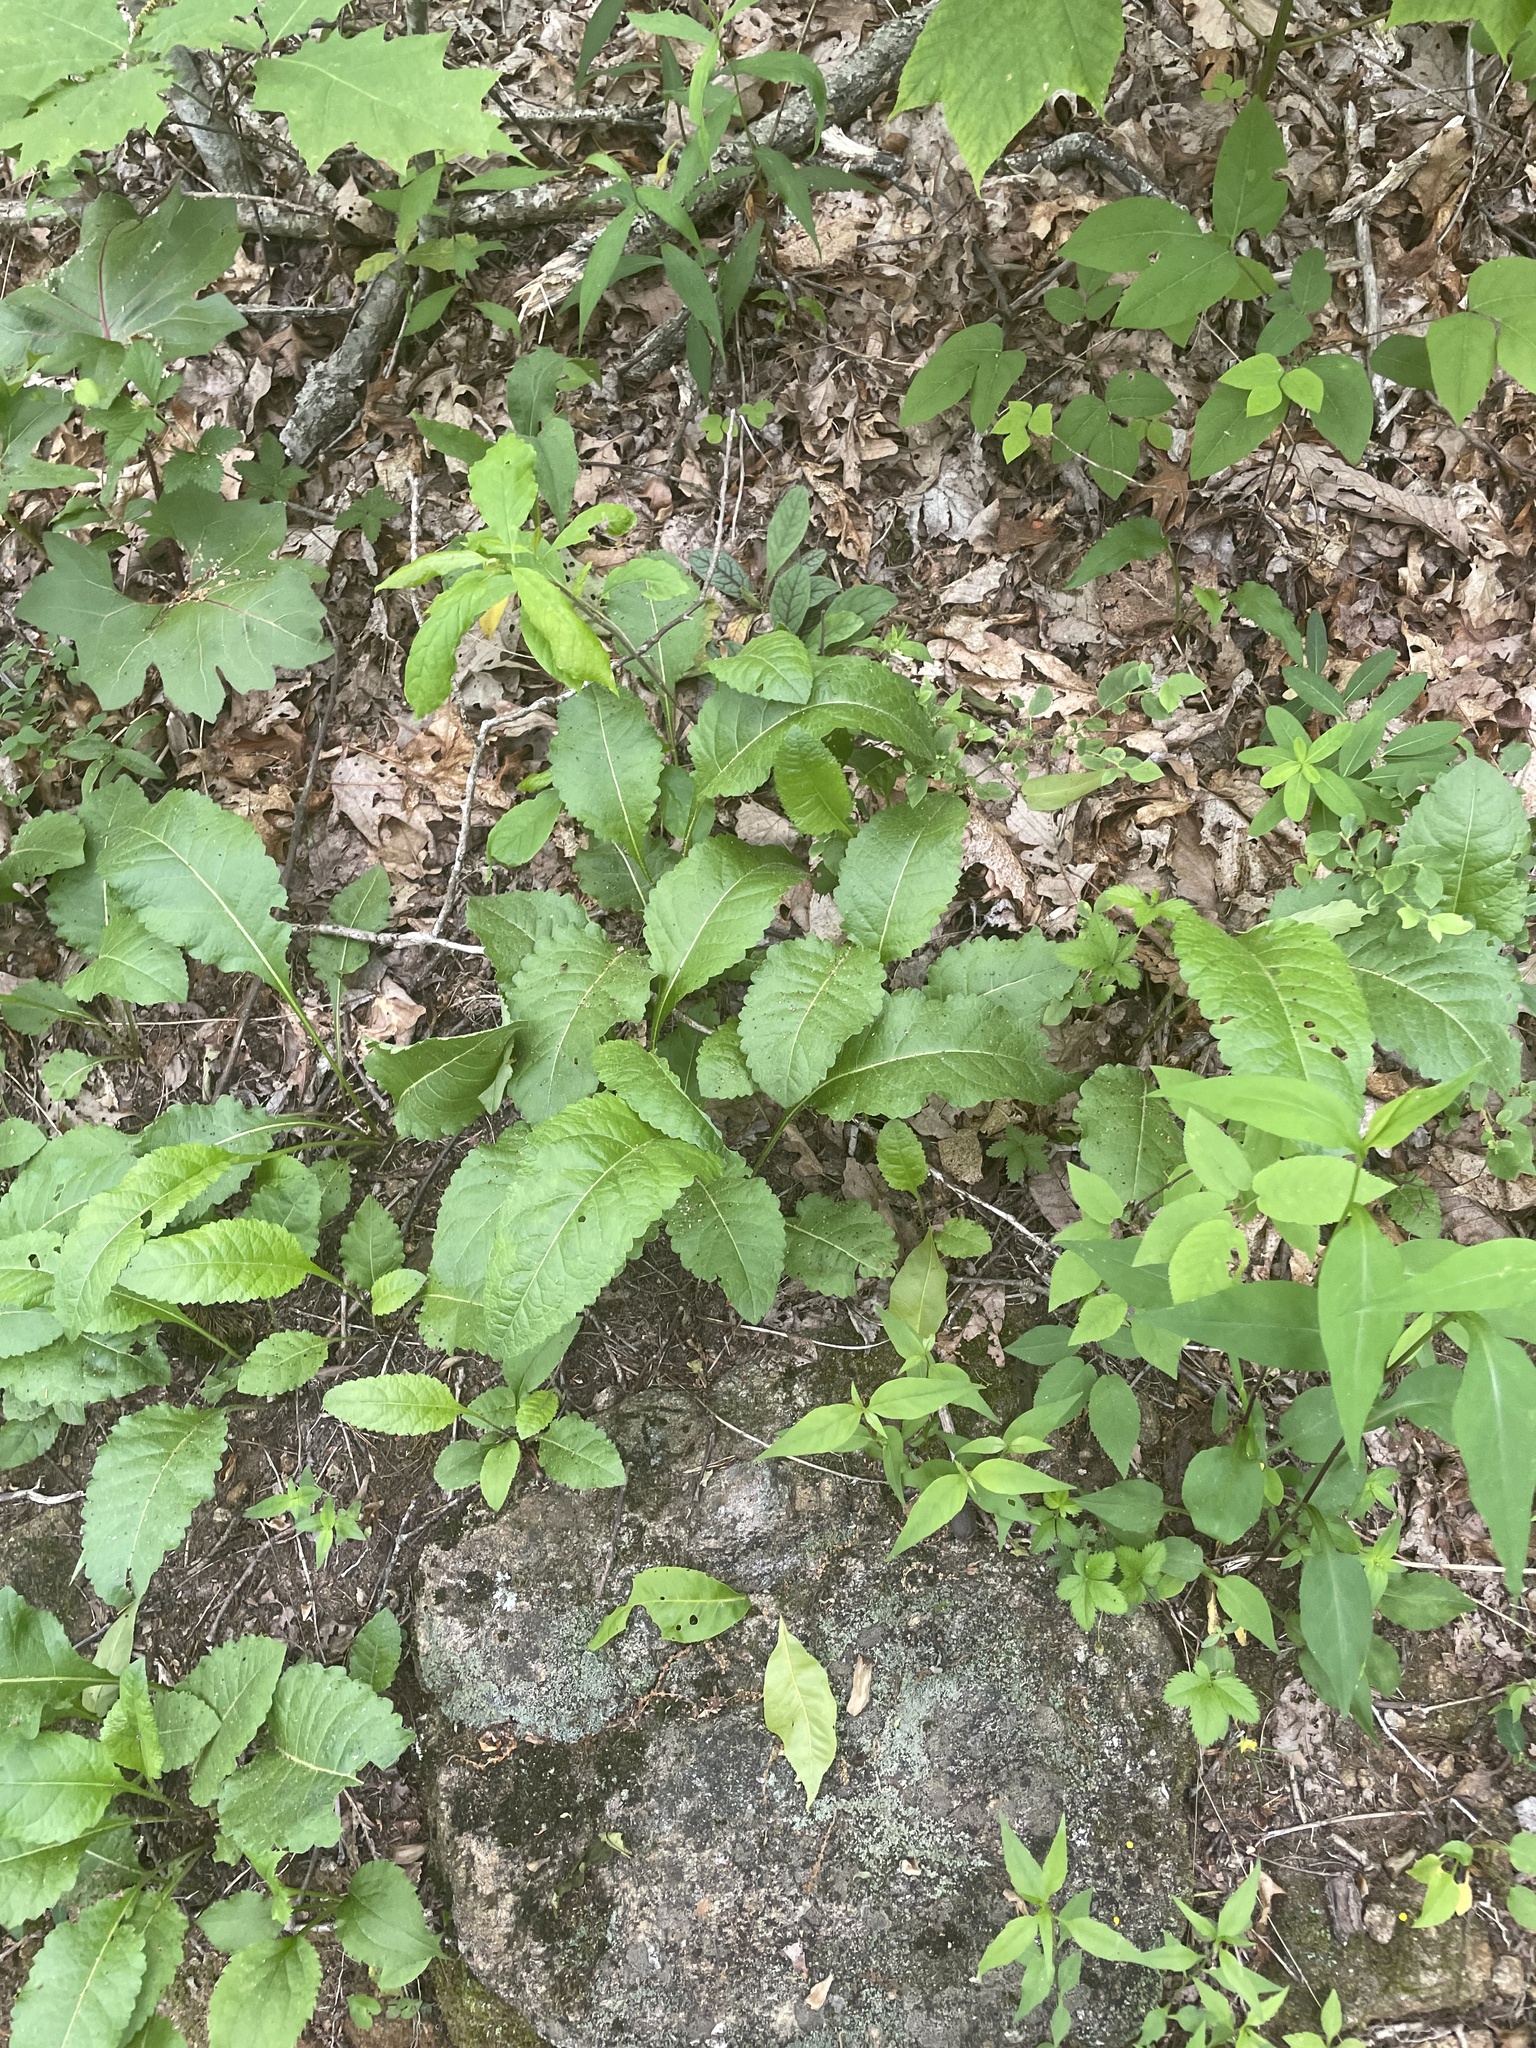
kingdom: Plantae
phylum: Tracheophyta
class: Magnoliopsida
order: Asterales
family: Asteraceae
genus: Parthenium
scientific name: Parthenium integrifolium
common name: American feverfew
